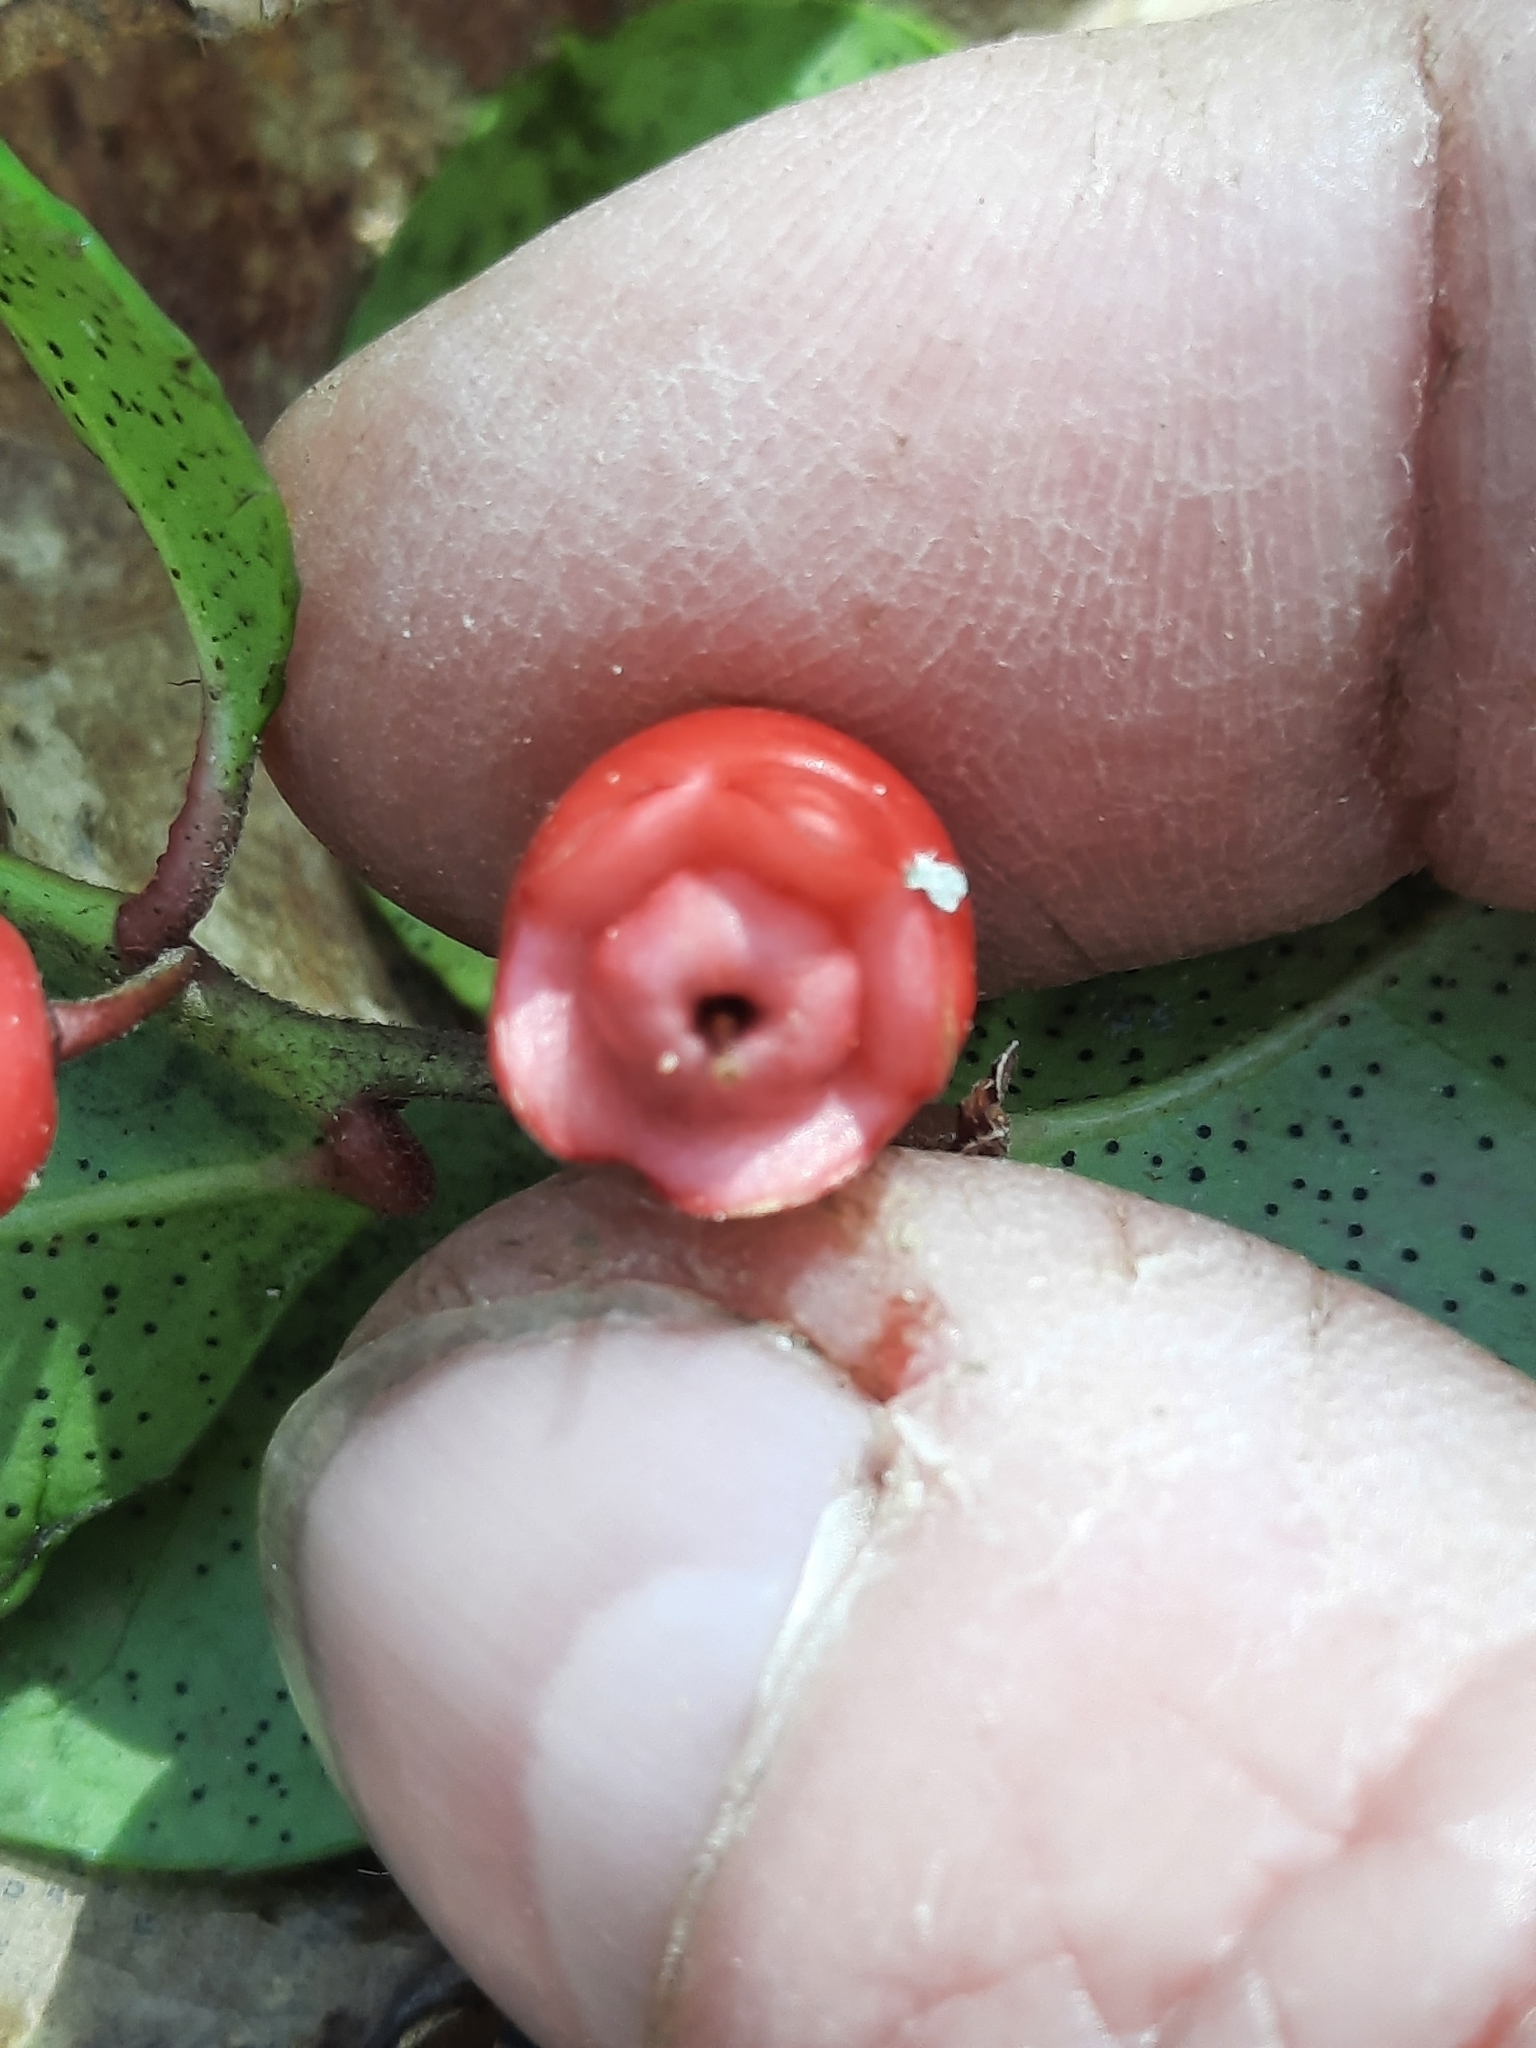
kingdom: Plantae
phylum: Tracheophyta
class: Magnoliopsida
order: Ericales
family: Ericaceae
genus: Gaultheria
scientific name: Gaultheria procumbens
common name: Checkerberry
